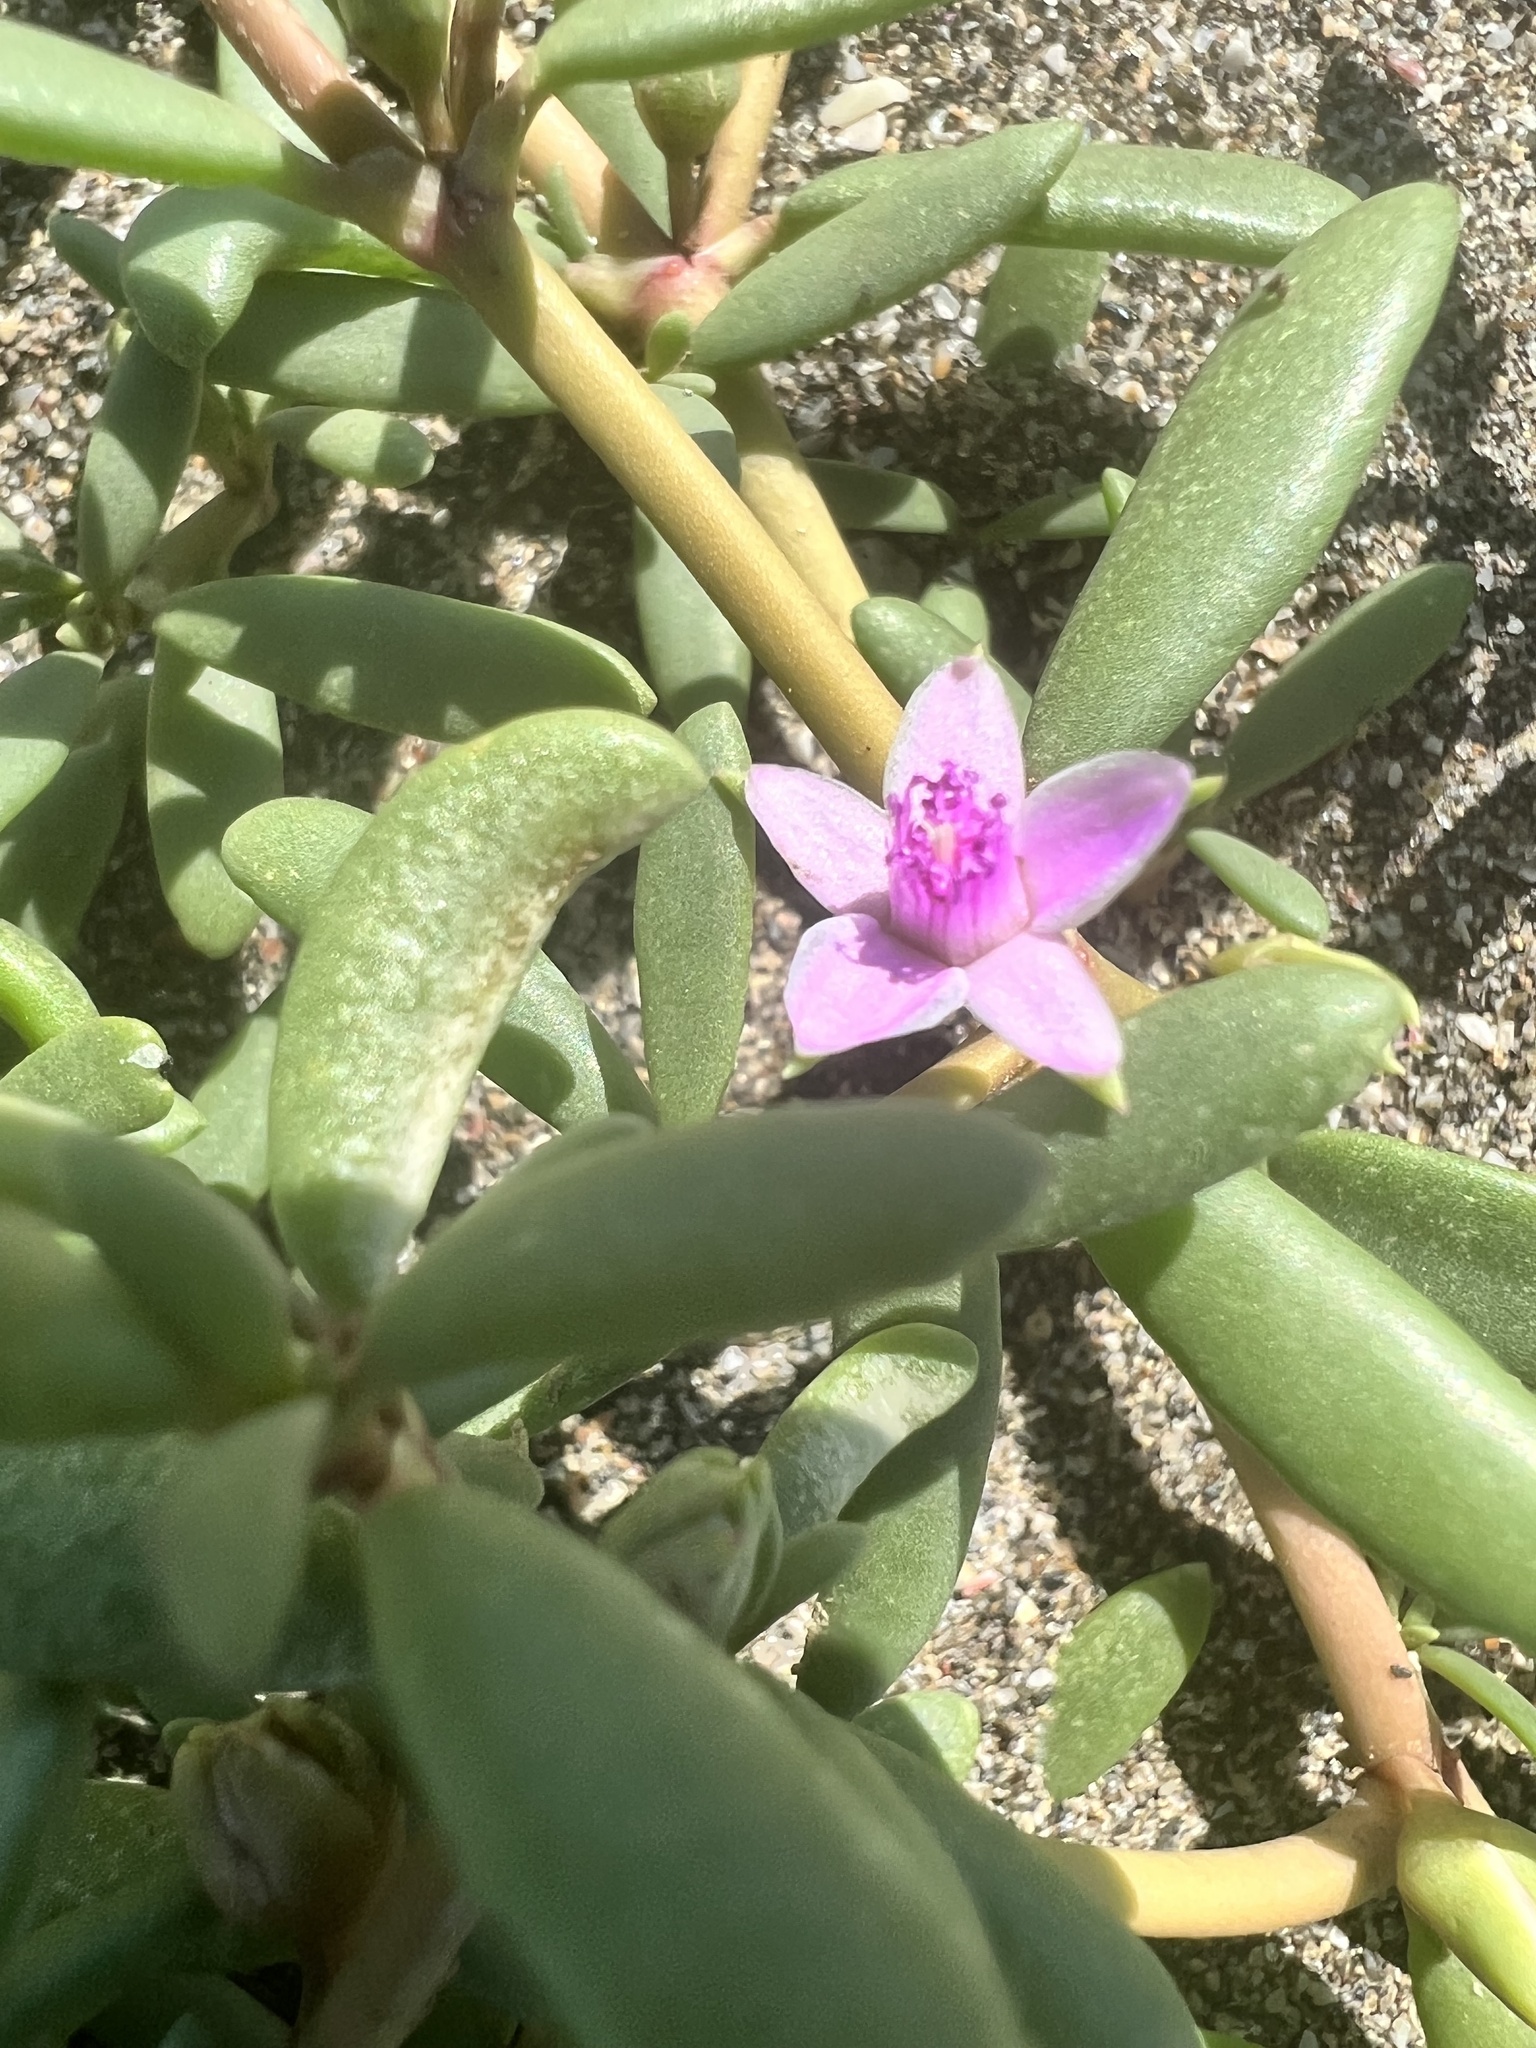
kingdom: Plantae
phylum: Tracheophyta
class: Magnoliopsida
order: Caryophyllales
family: Aizoaceae
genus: Sesuvium
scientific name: Sesuvium portulacastrum
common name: Sea-purslane
